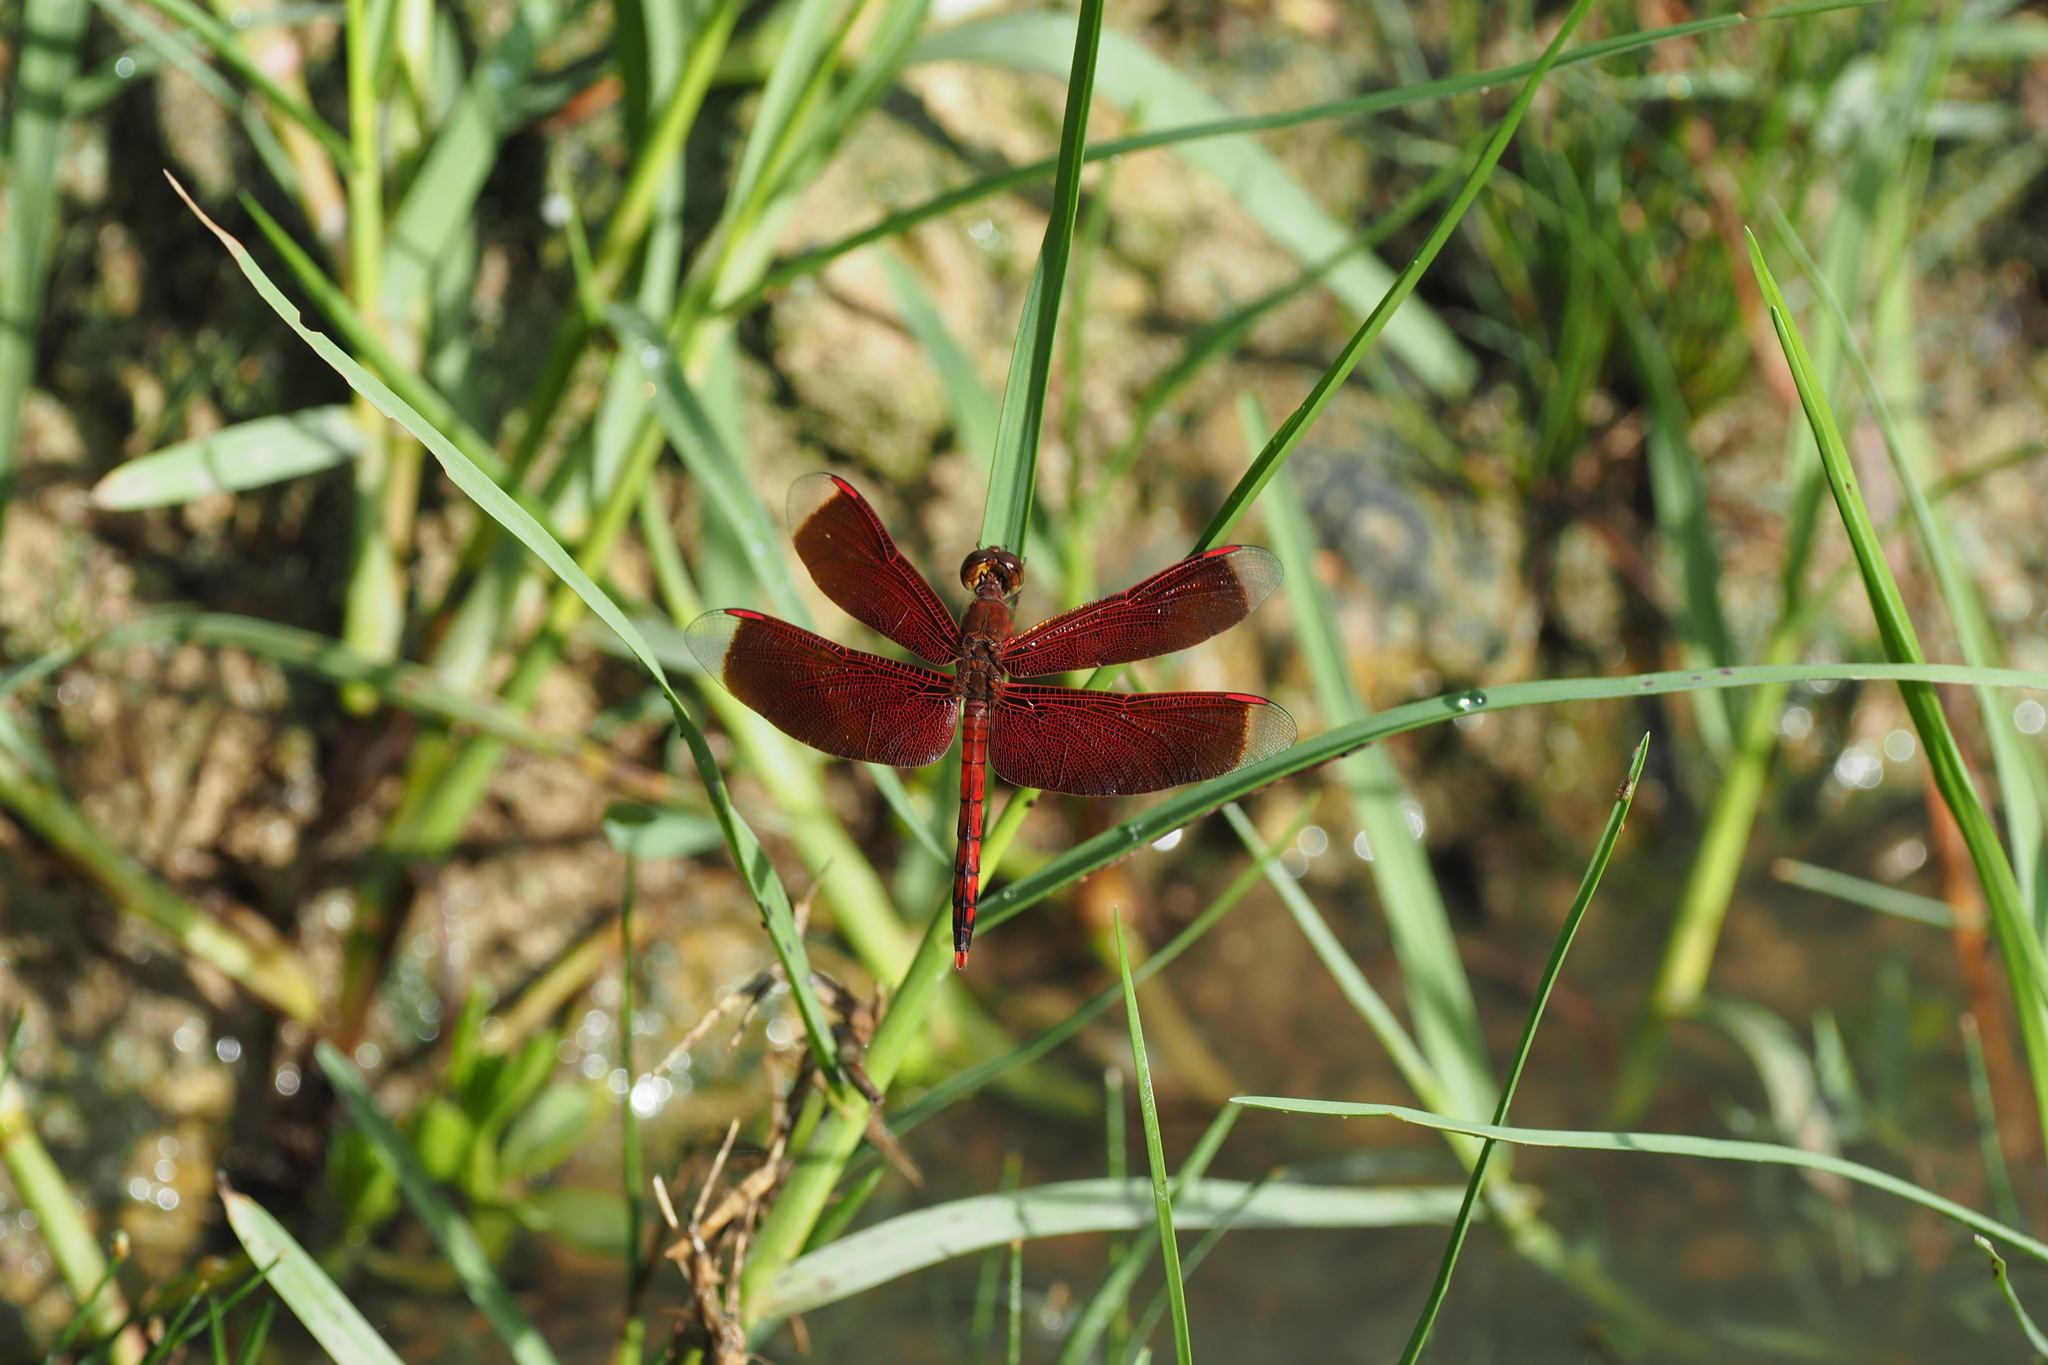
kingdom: Animalia
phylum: Arthropoda
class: Insecta
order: Odonata
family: Libellulidae
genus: Neurothemis
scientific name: Neurothemis terminata
